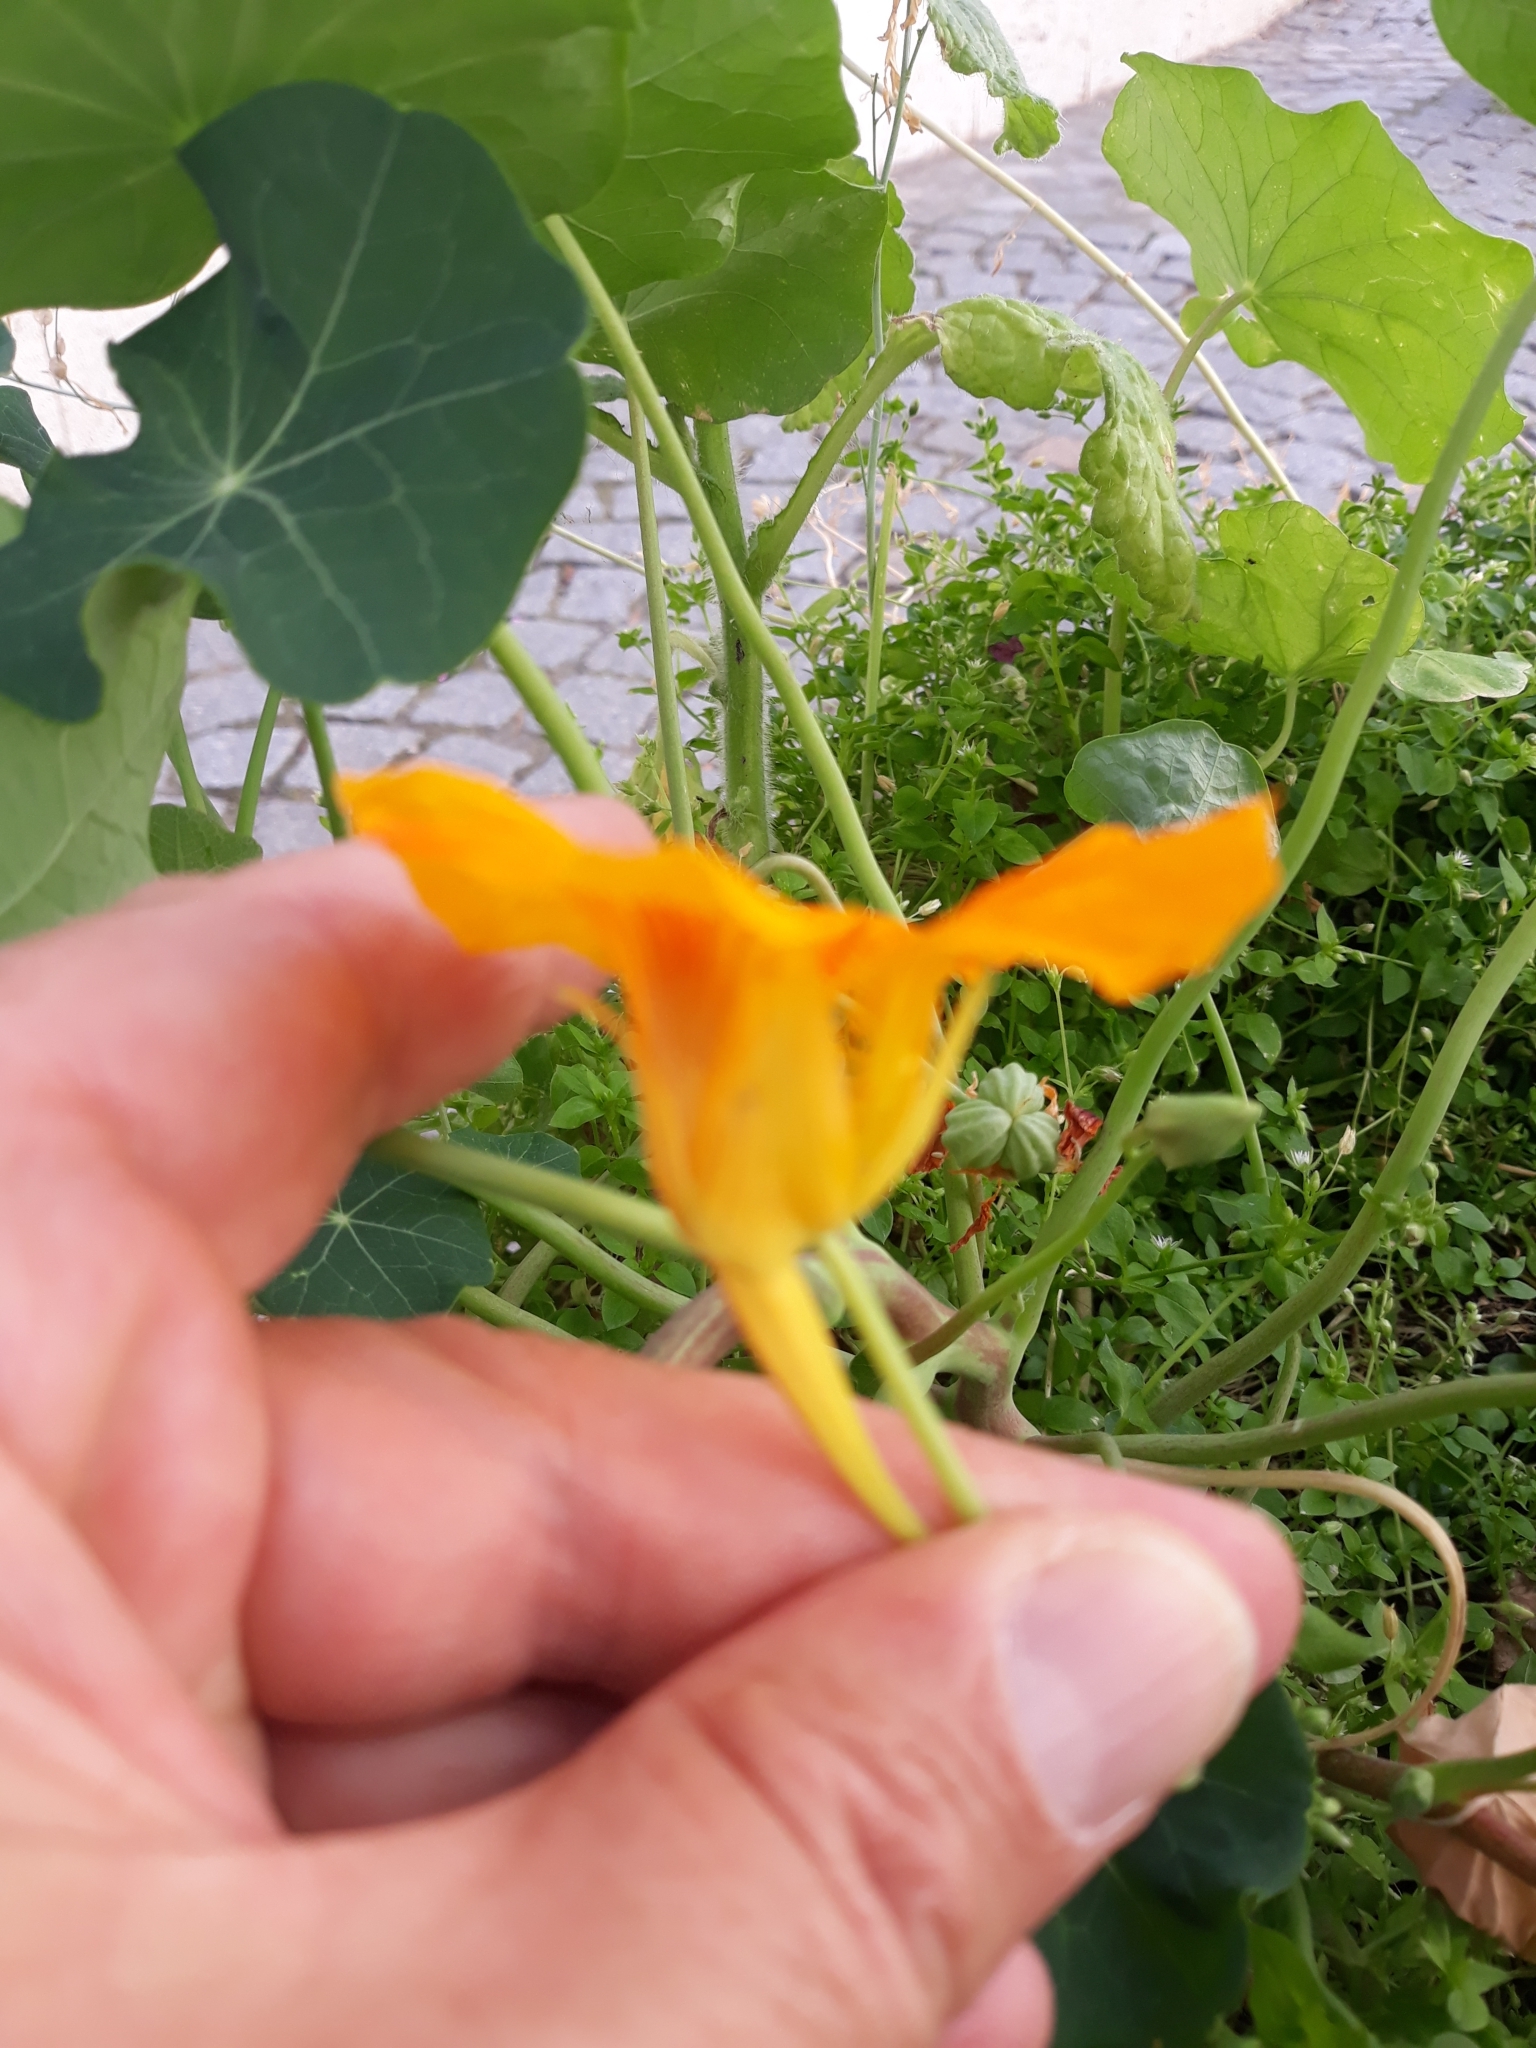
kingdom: Plantae
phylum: Tracheophyta
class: Magnoliopsida
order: Brassicales
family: Tropaeolaceae
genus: Tropaeolum
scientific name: Tropaeolum majus
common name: Nasturtium
